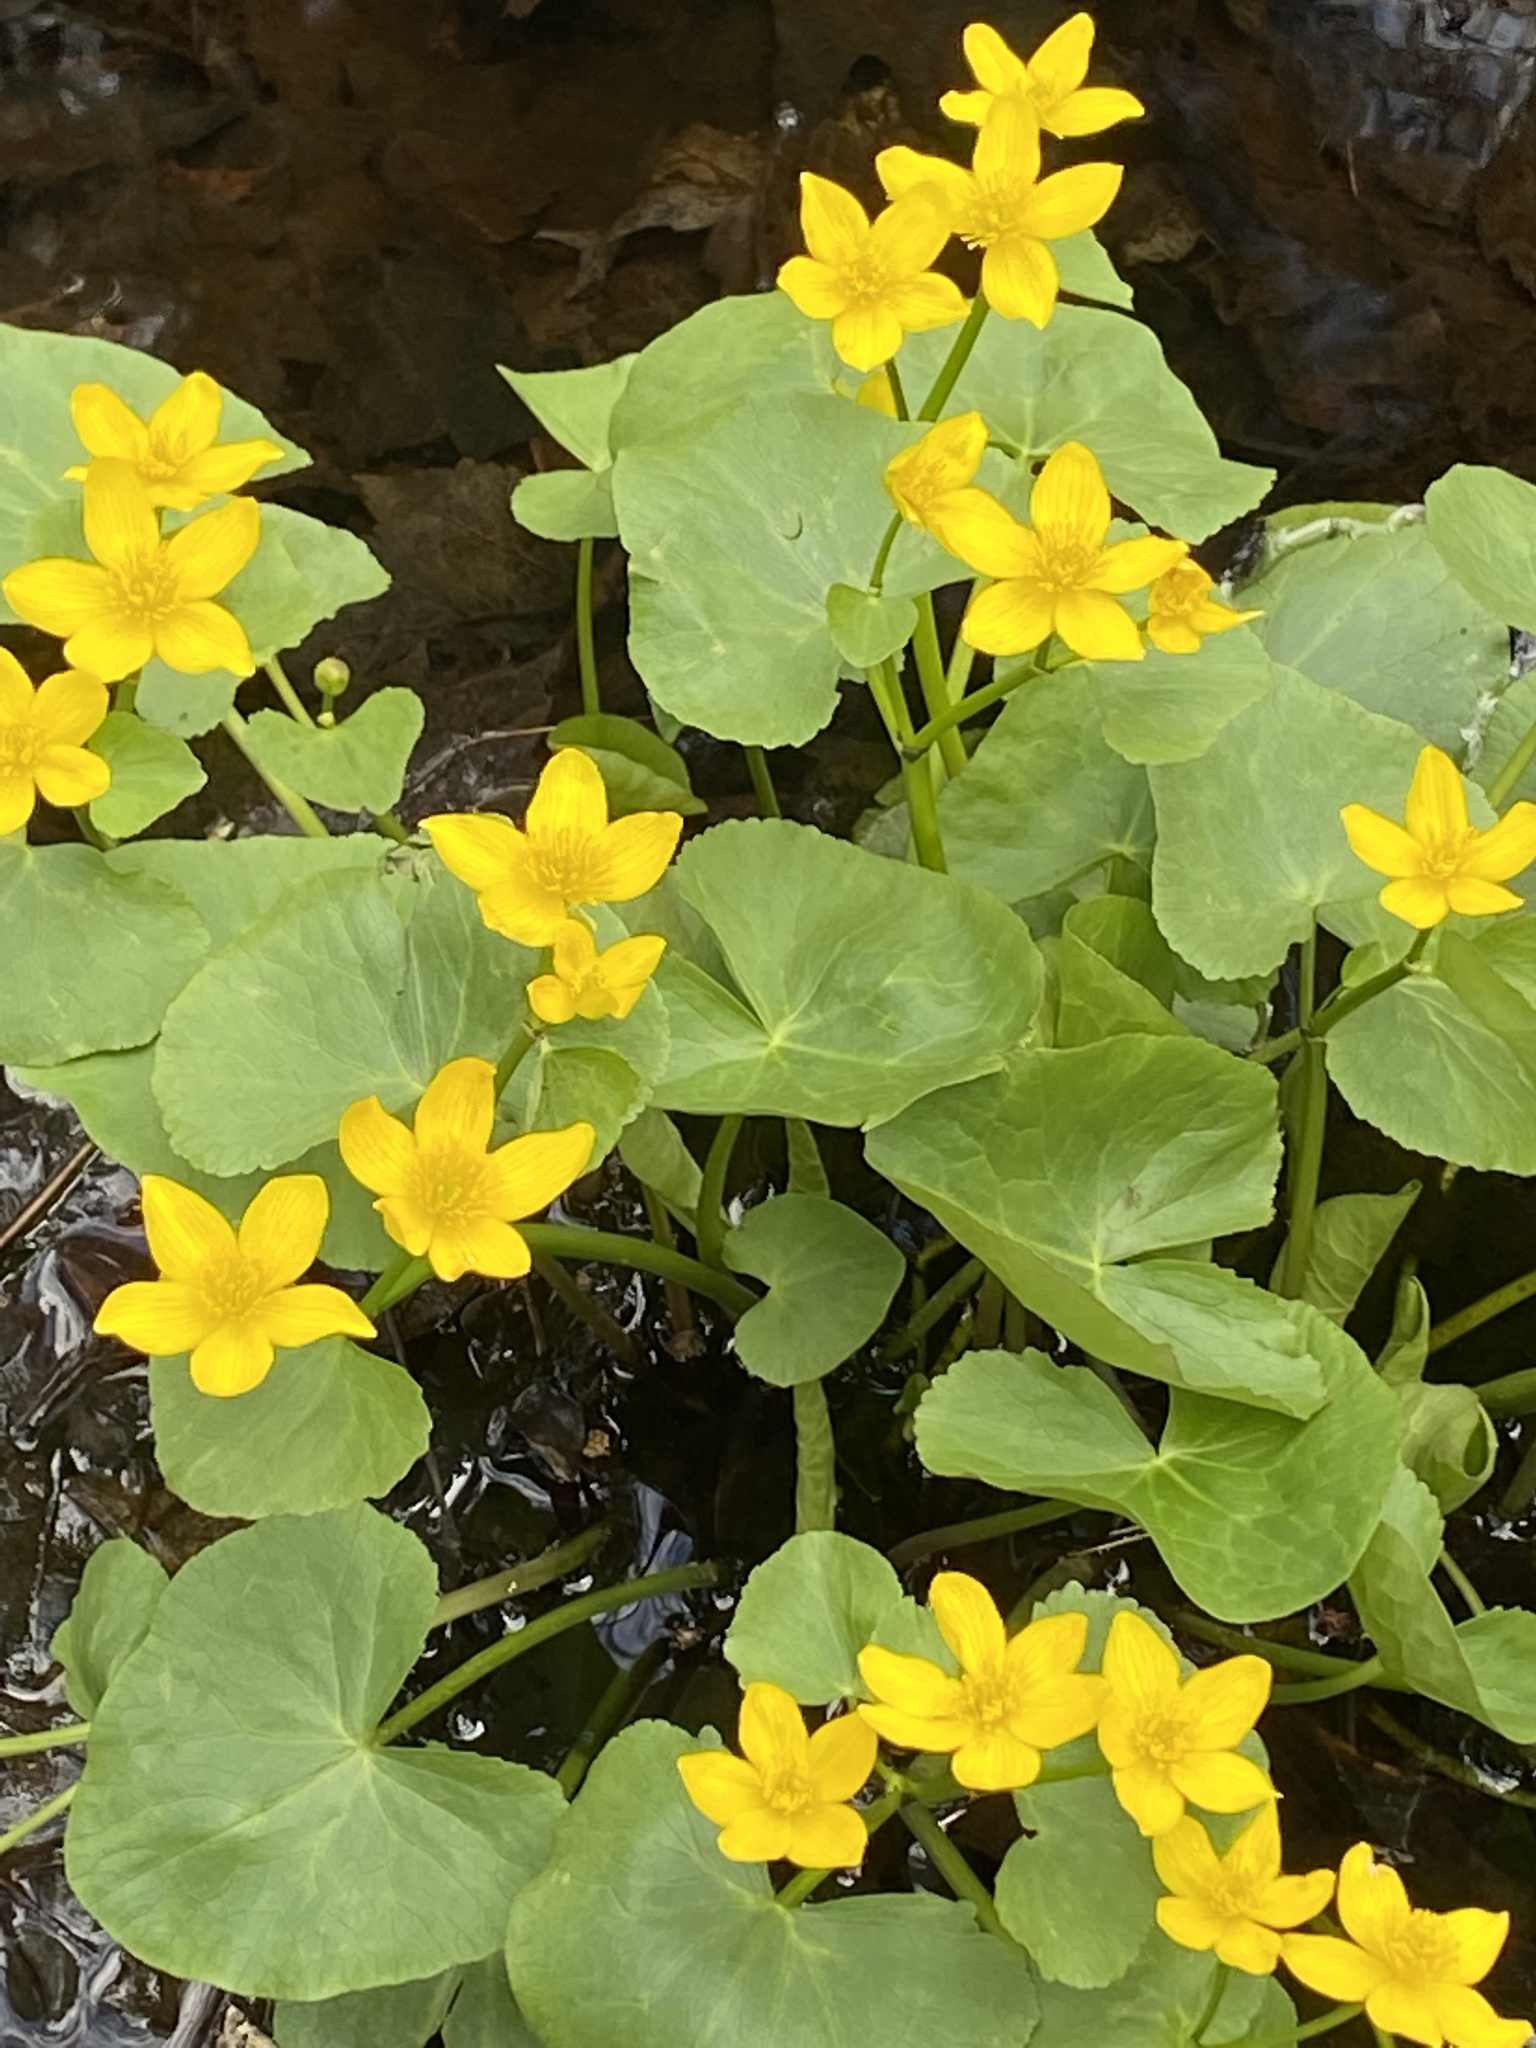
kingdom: Plantae
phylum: Tracheophyta
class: Magnoliopsida
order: Ranunculales
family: Ranunculaceae
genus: Caltha
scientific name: Caltha palustris
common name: Marsh marigold
